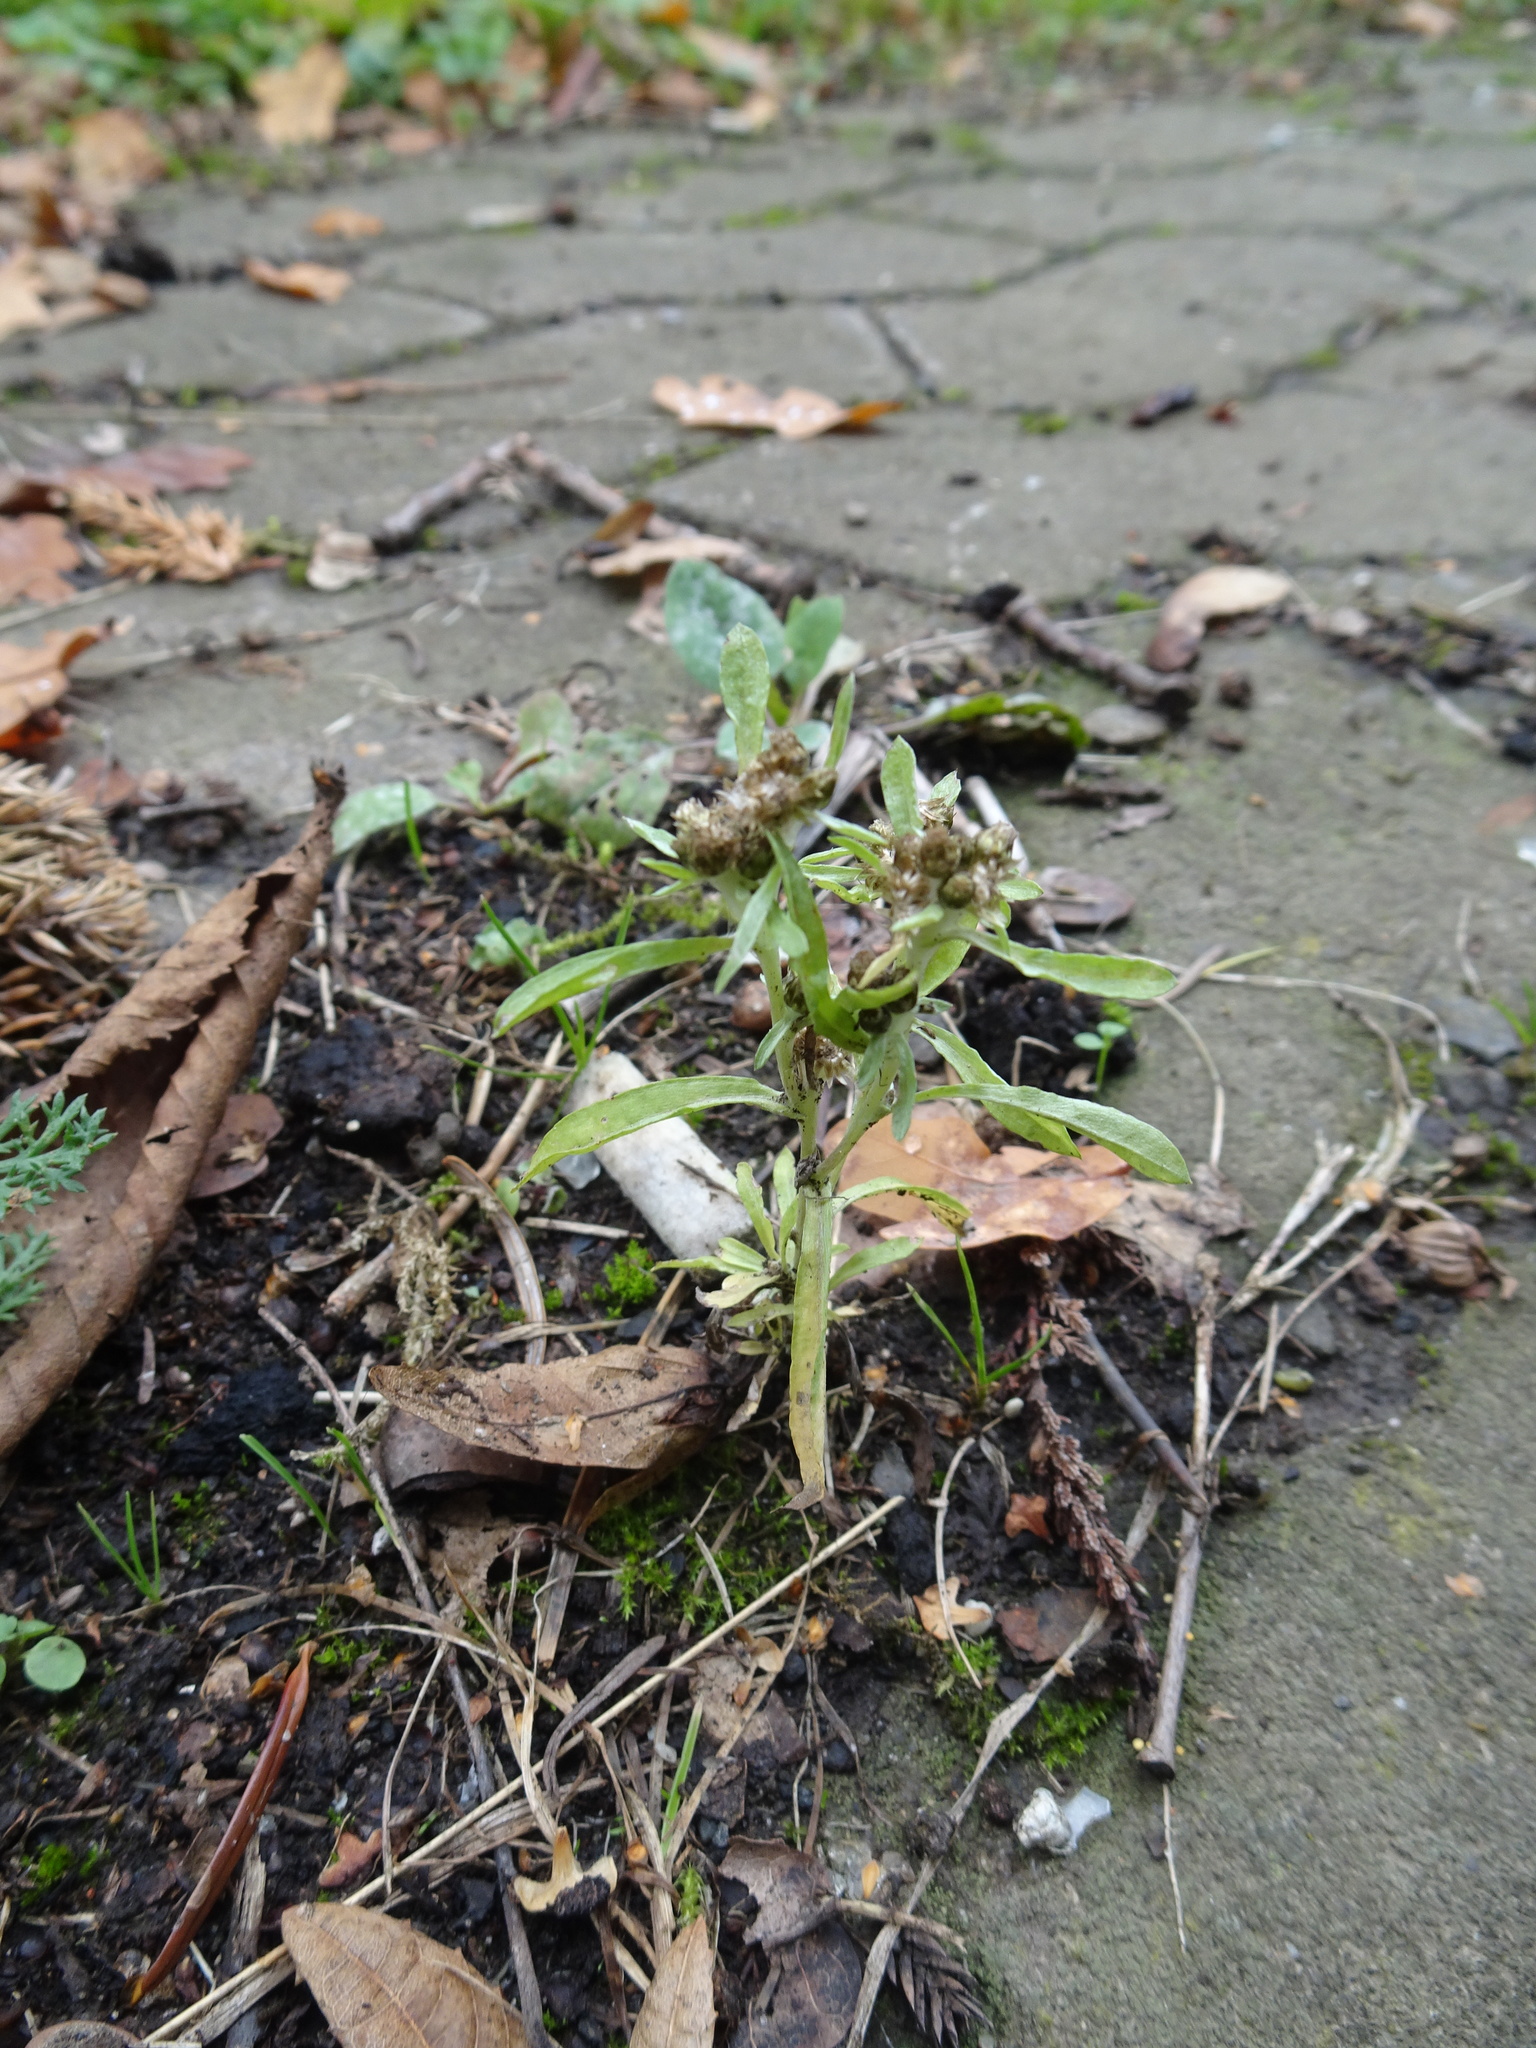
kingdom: Plantae
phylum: Tracheophyta
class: Magnoliopsida
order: Asterales
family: Asteraceae
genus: Gnaphalium
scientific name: Gnaphalium uliginosum
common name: Marsh cudweed
